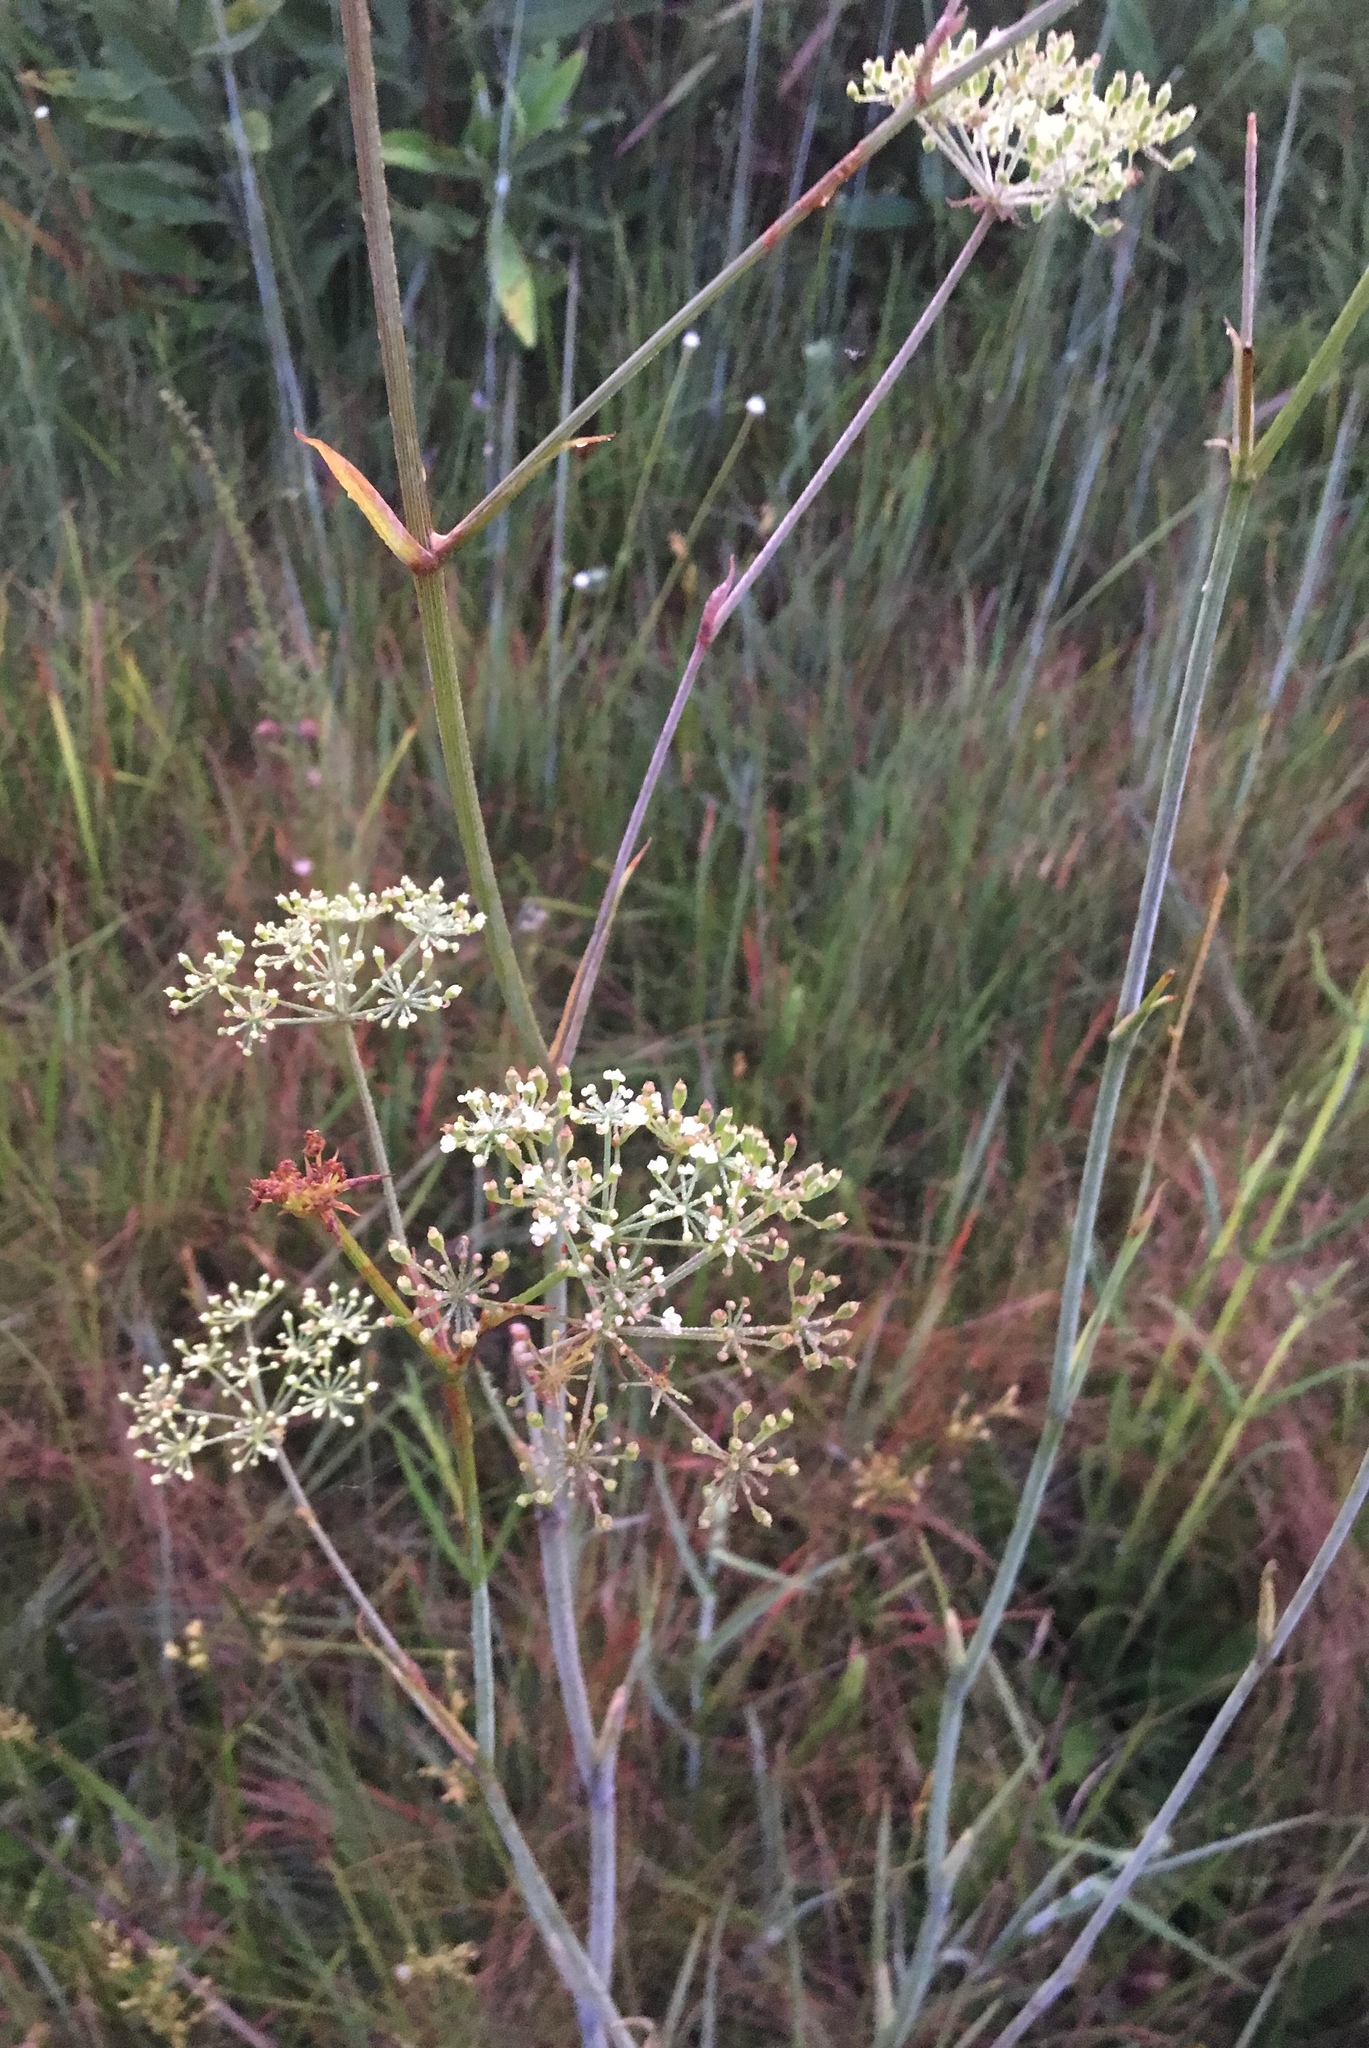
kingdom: Plantae
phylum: Tracheophyta
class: Magnoliopsida
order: Apiales
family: Apiaceae
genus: Tiedemannia
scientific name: Tiedemannia filiformis
